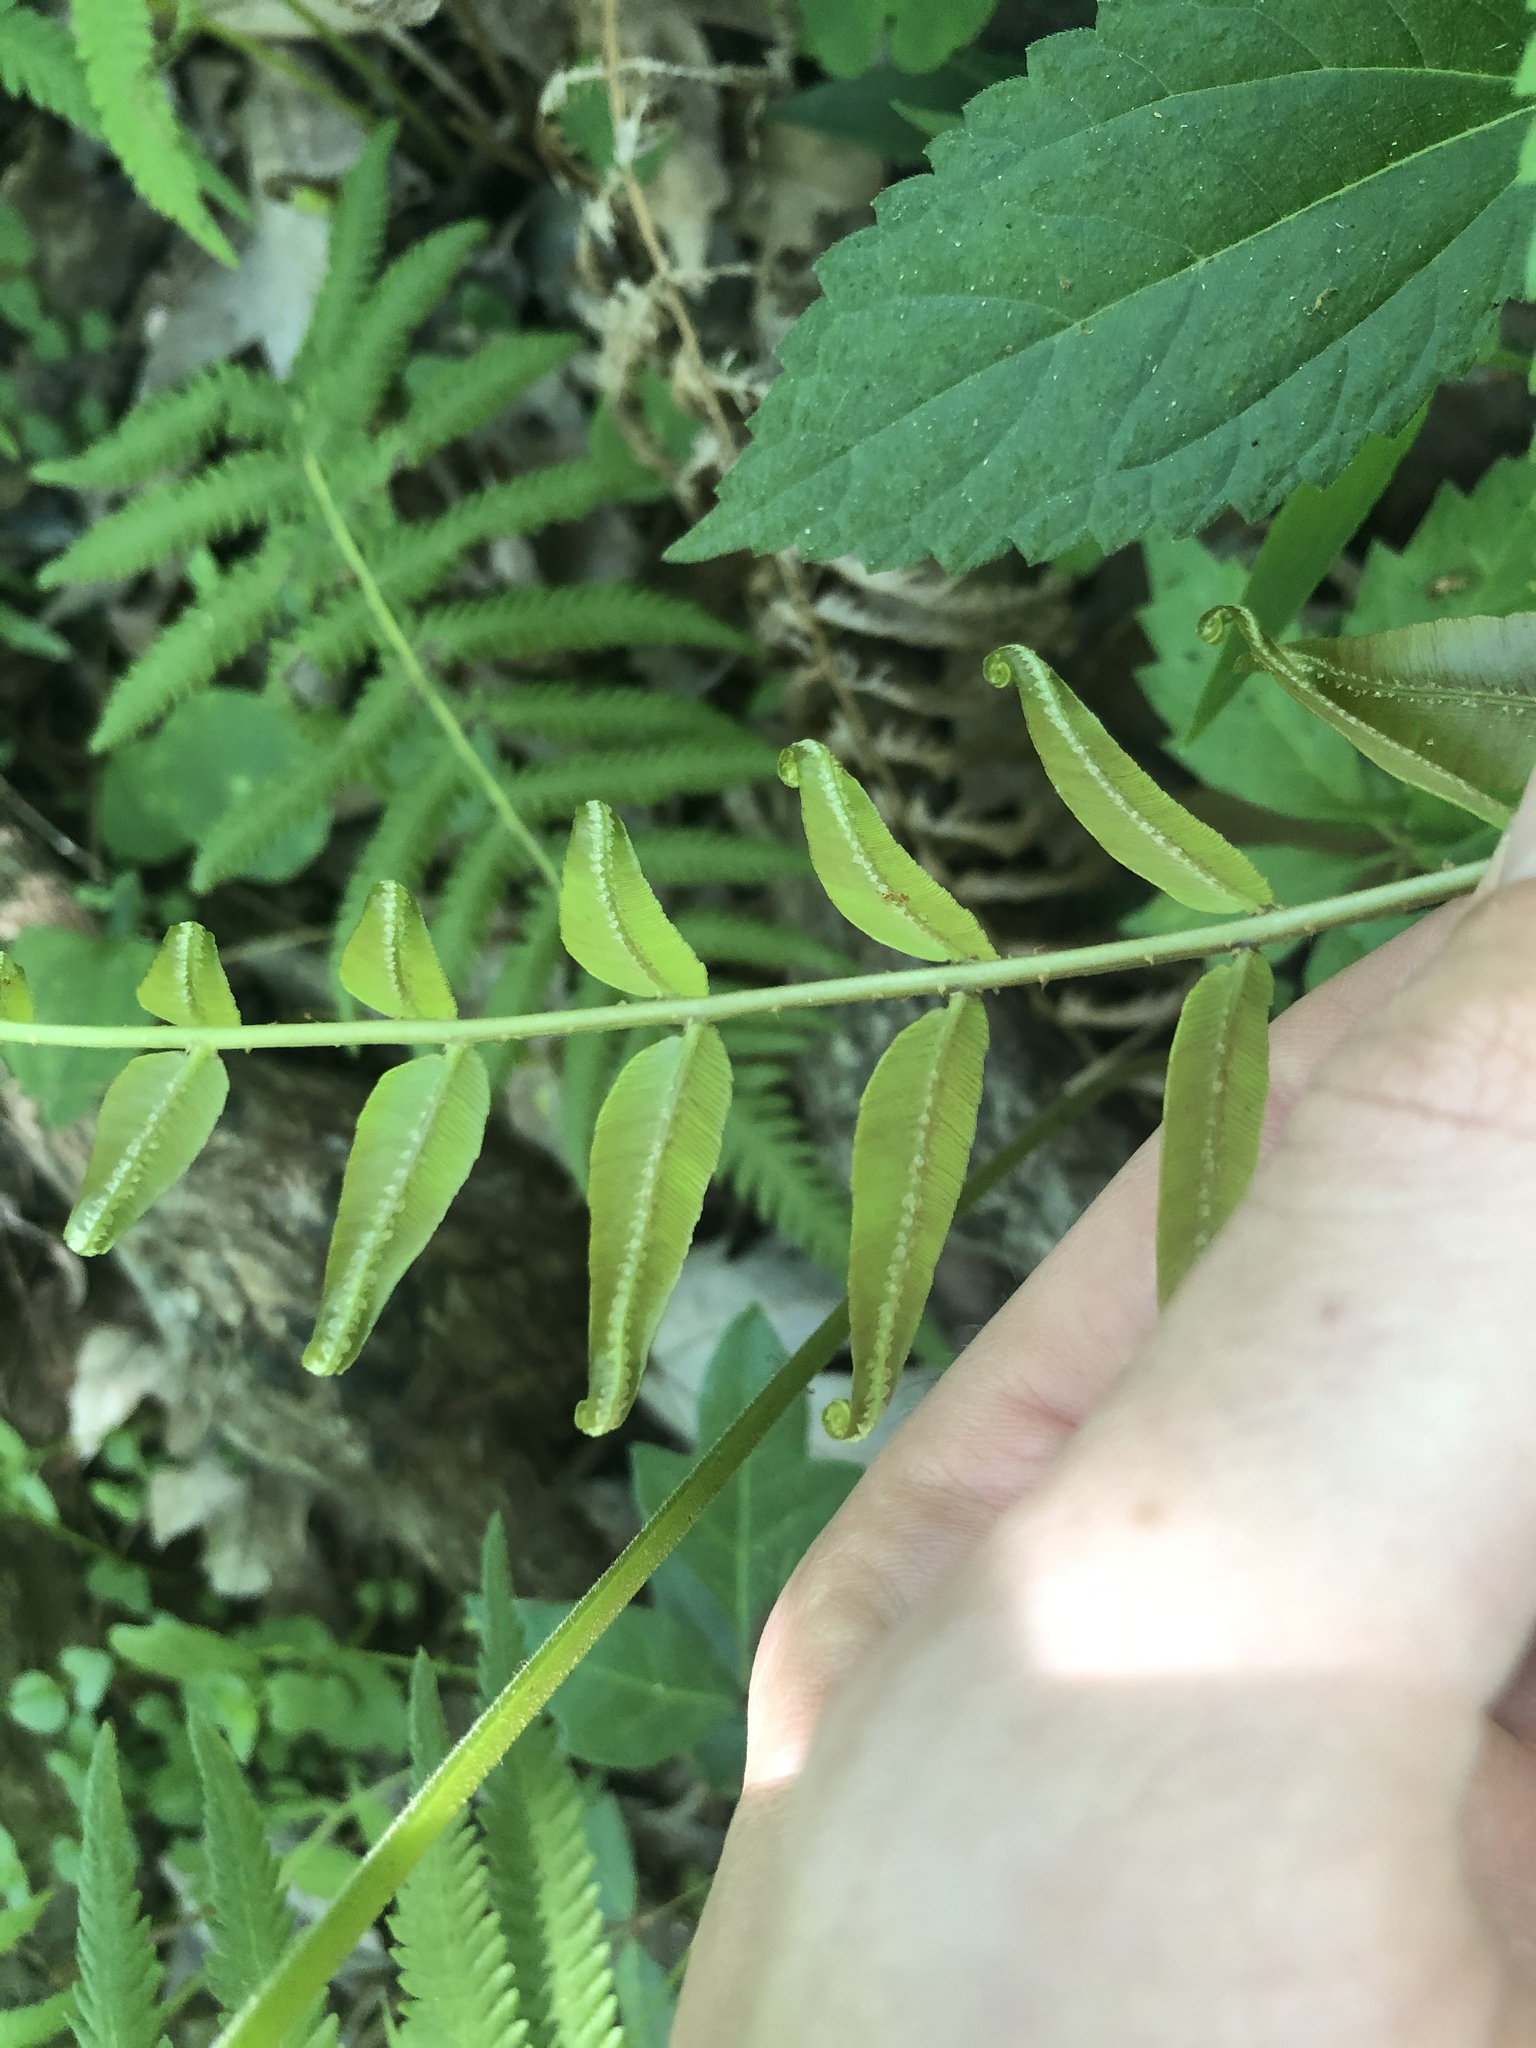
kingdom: Plantae
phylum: Tracheophyta
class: Polypodiopsida
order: Polypodiales
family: Blechnaceae
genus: Telmatoblechnum
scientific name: Telmatoblechnum serrulatum
